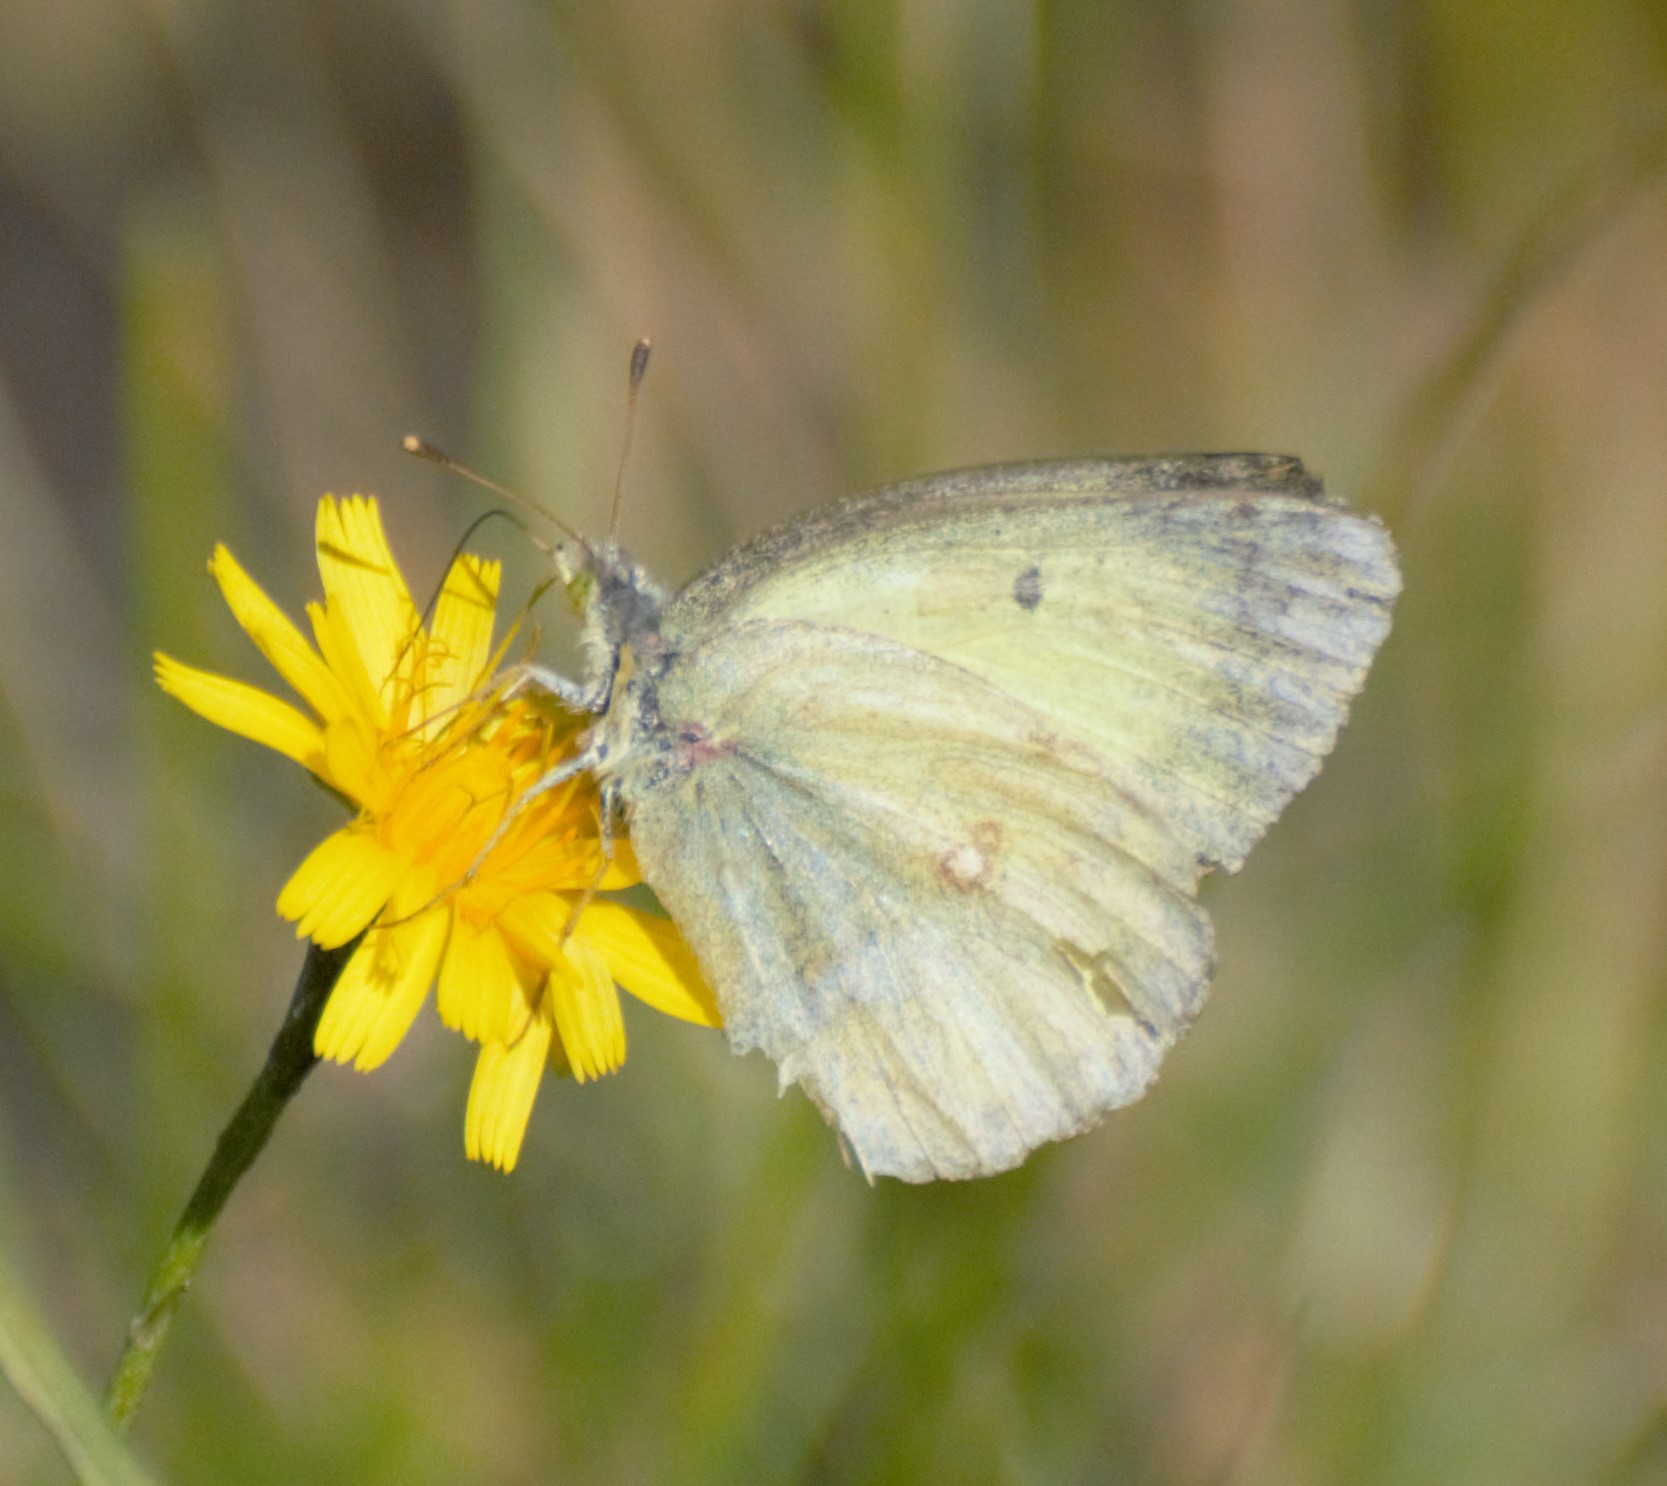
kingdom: Animalia
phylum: Arthropoda
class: Insecta
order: Lepidoptera
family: Pieridae
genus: Colias
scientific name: Colias philodice
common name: Clouded sulphur
